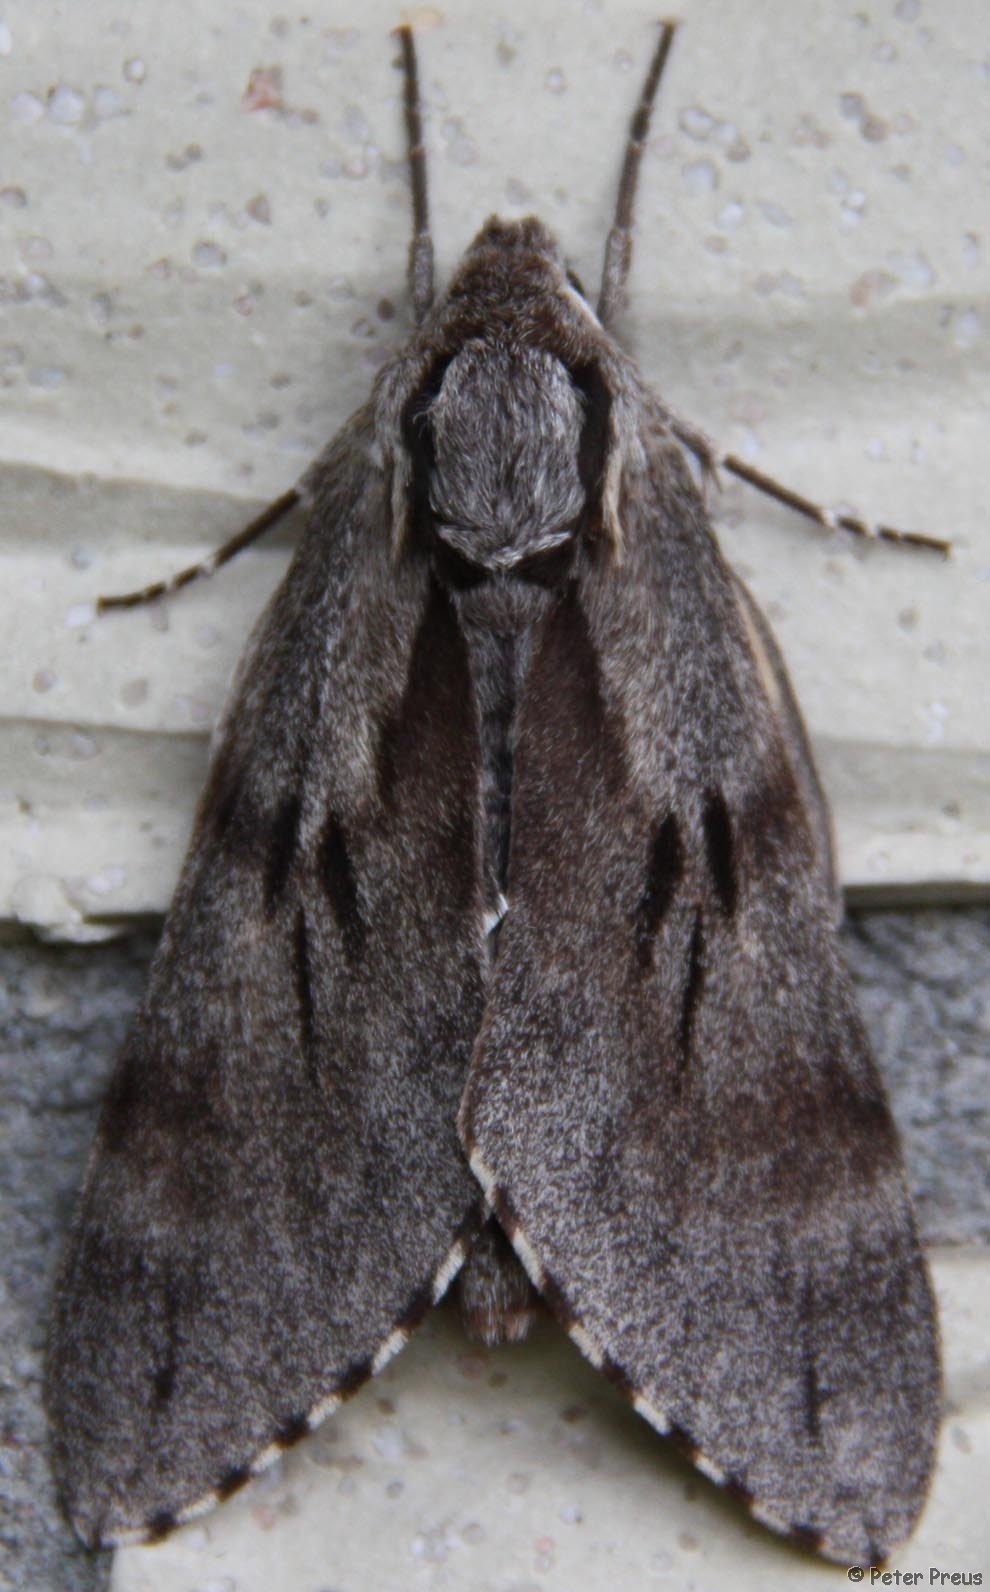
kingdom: Animalia
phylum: Arthropoda
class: Insecta
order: Lepidoptera
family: Sphingidae
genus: Sphinx
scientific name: Sphinx pinastri
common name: Pine hawk-moth
